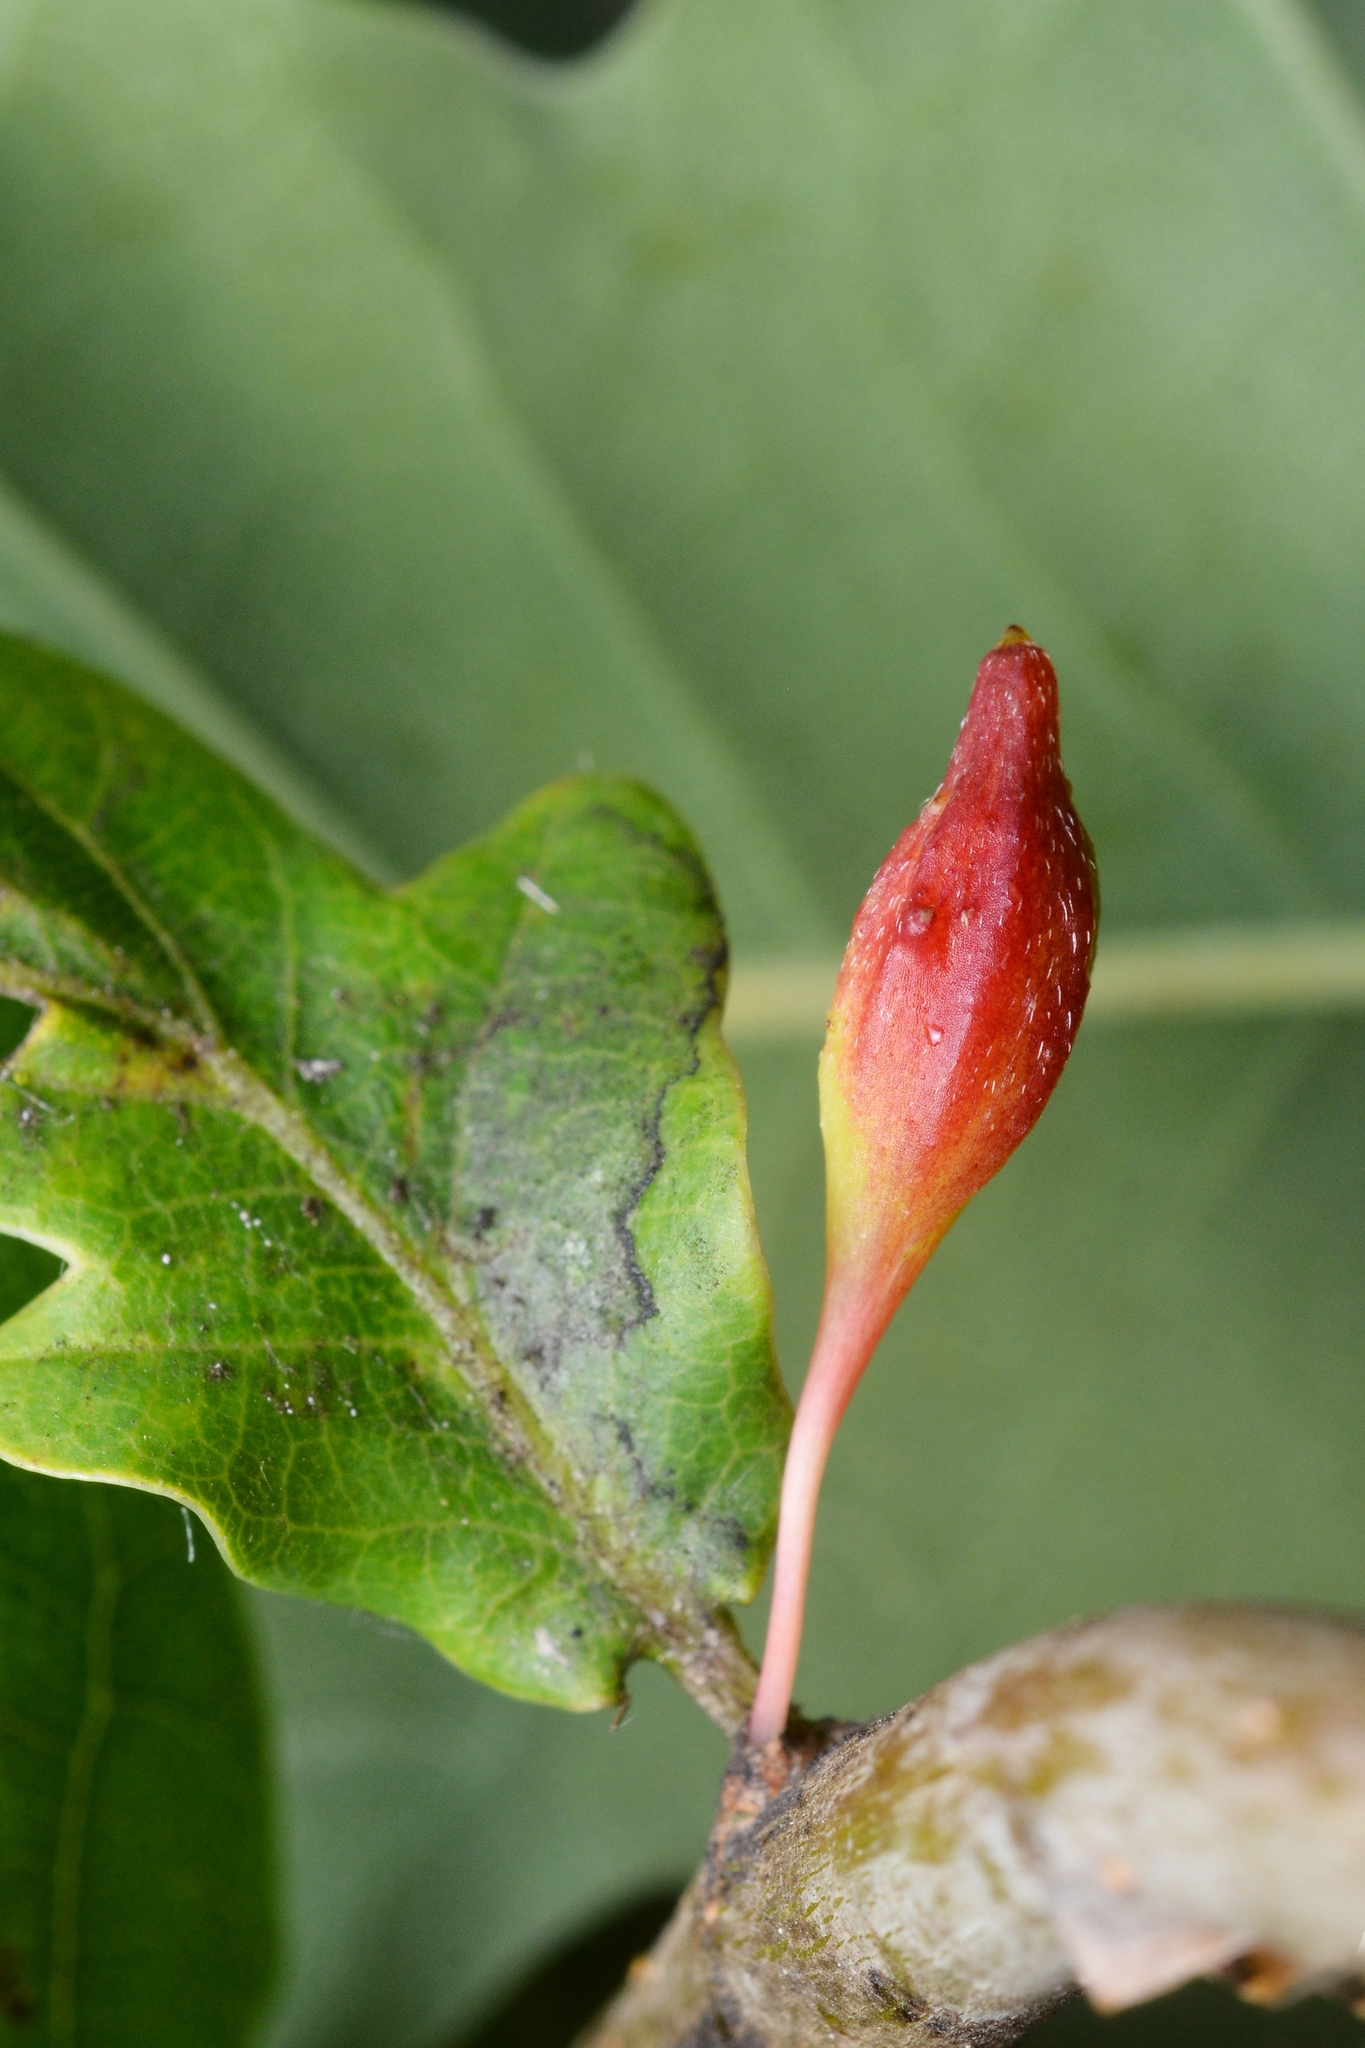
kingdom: Animalia
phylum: Arthropoda
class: Insecta
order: Hymenoptera
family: Cynipidae
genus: Andricus
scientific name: Andricus callidoma
